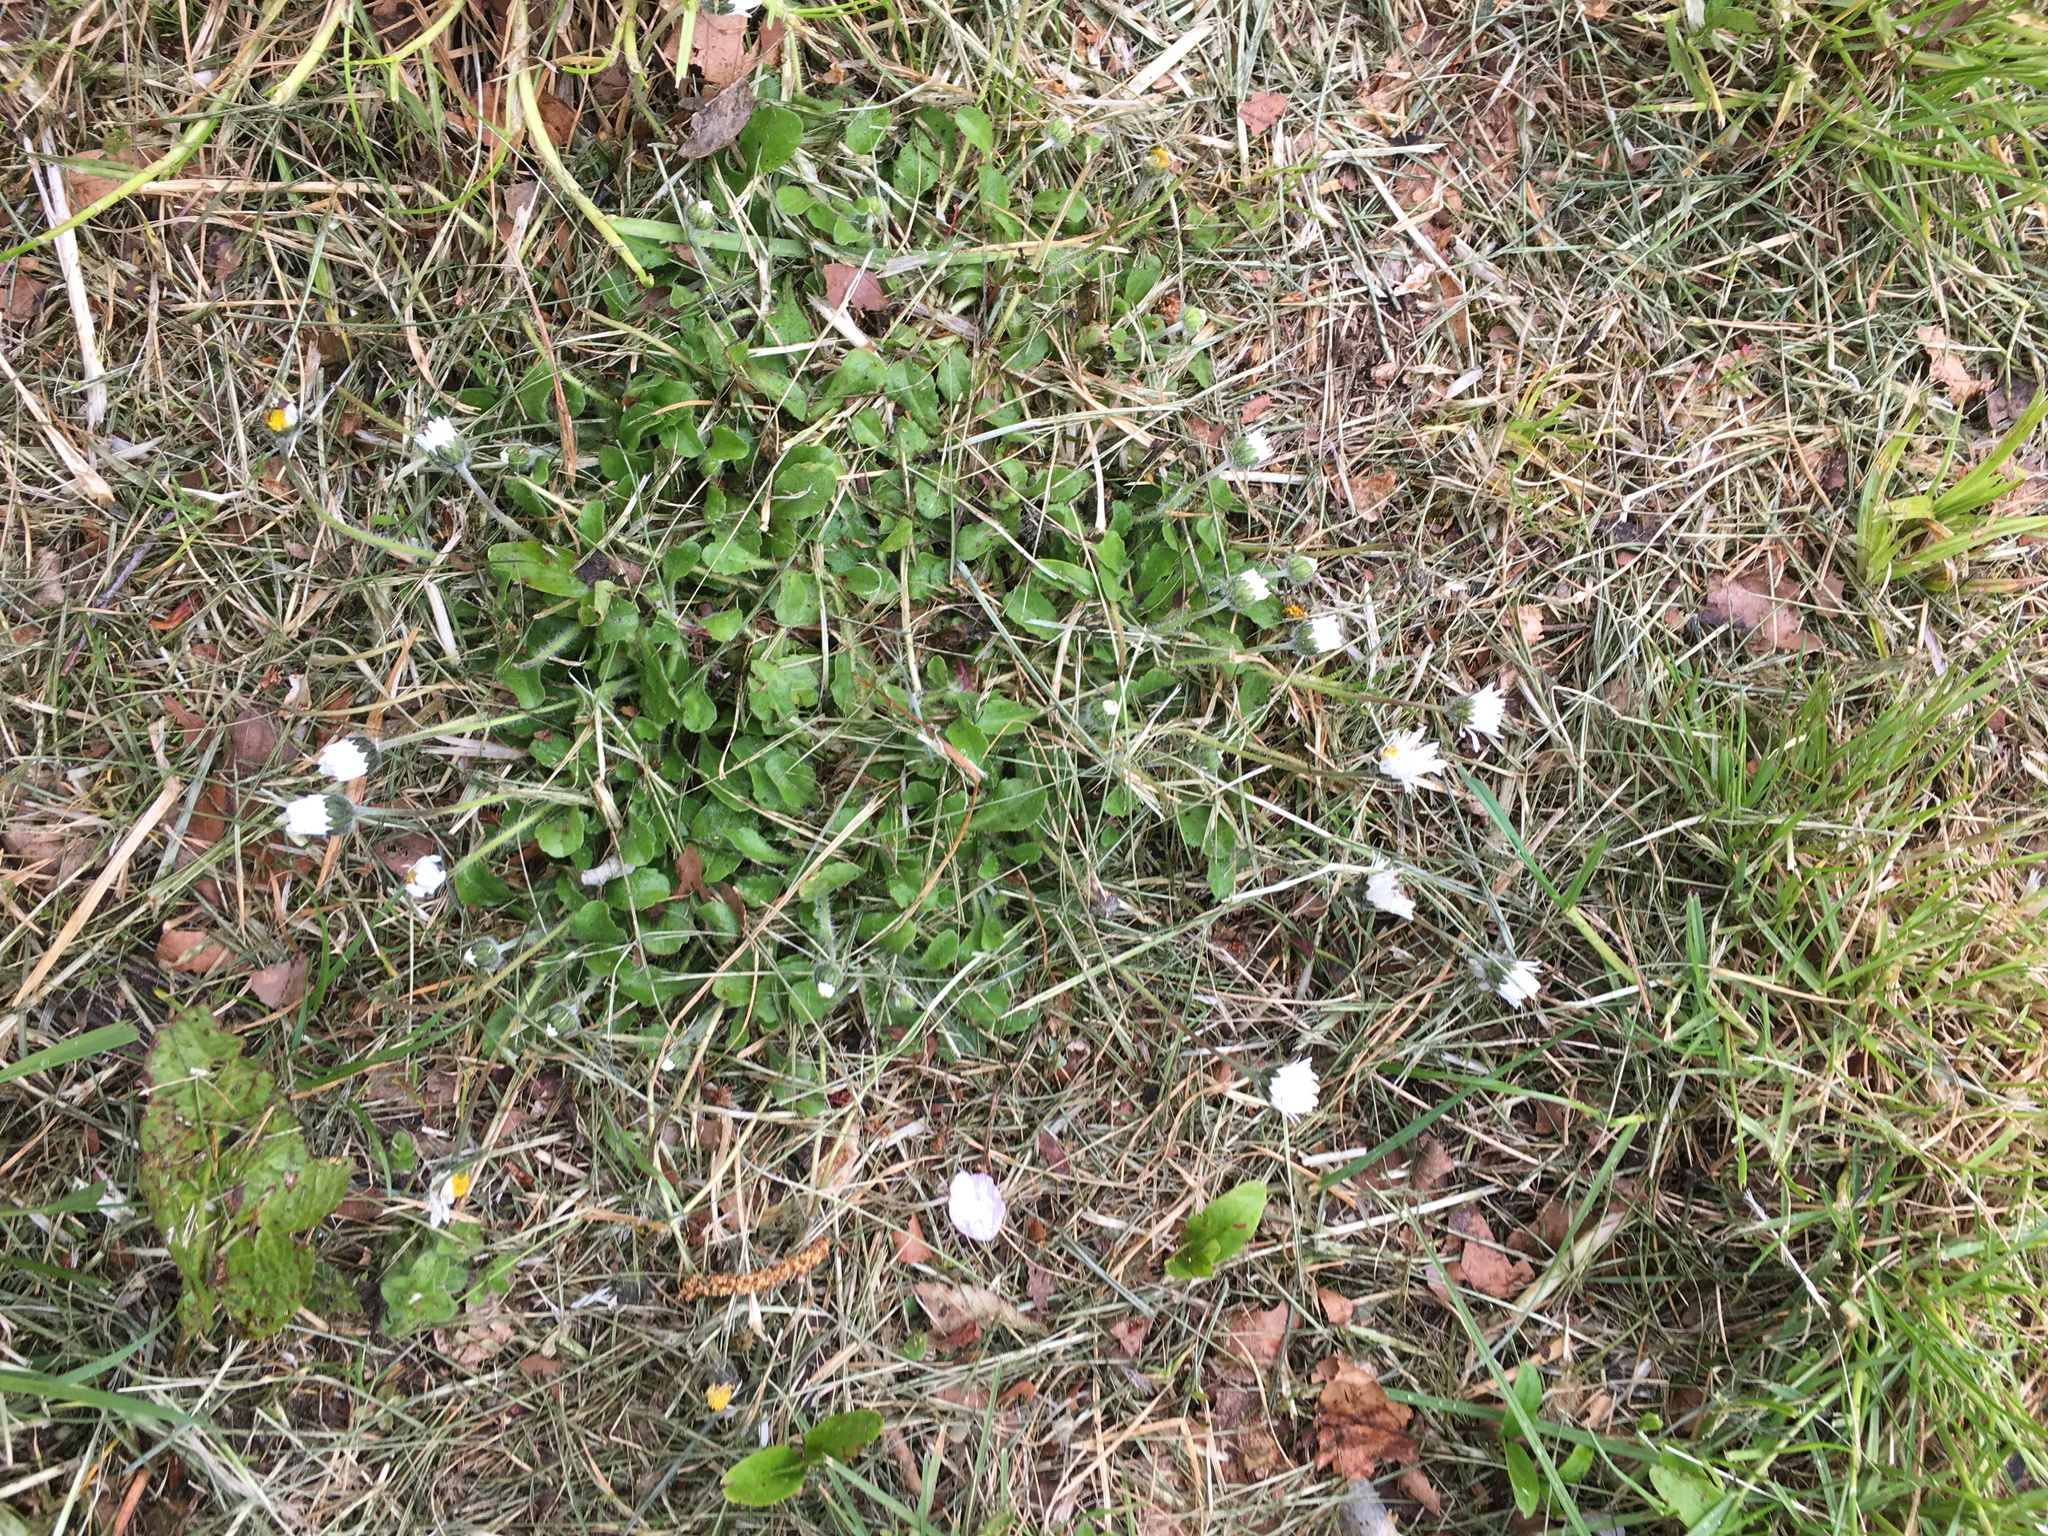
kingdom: Plantae
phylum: Tracheophyta
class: Magnoliopsida
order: Asterales
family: Asteraceae
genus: Bellis
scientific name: Bellis perennis
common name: Lawndaisy
